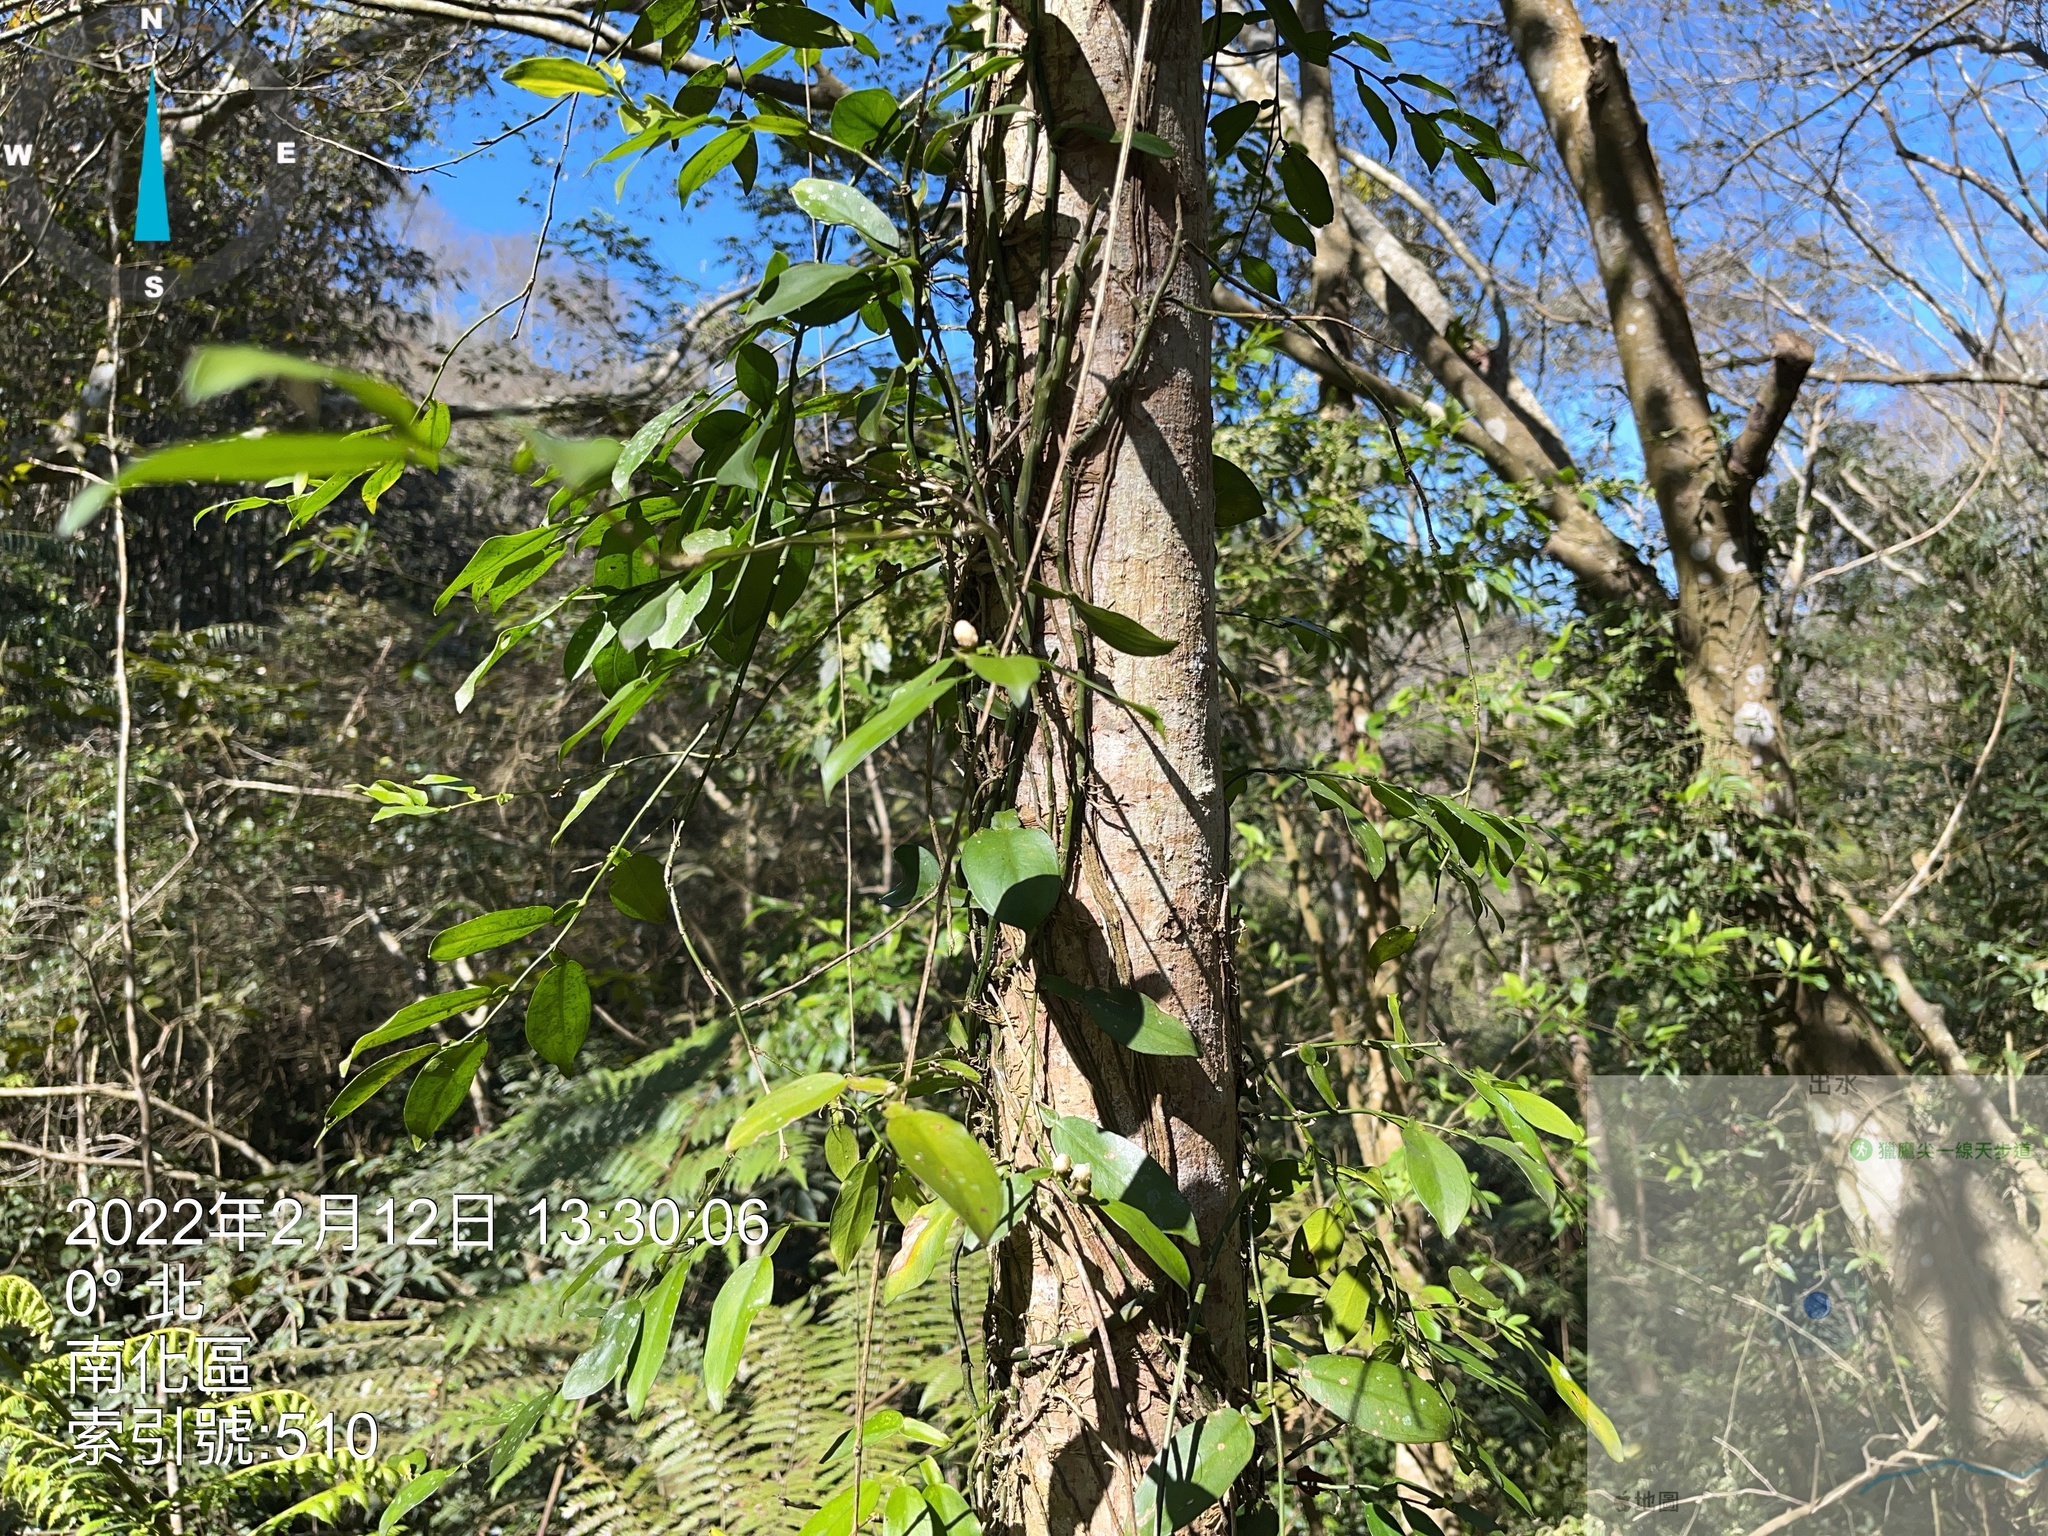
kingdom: Plantae
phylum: Tracheophyta
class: Liliopsida
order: Alismatales
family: Araceae
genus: Pothos
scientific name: Pothos chinensis
